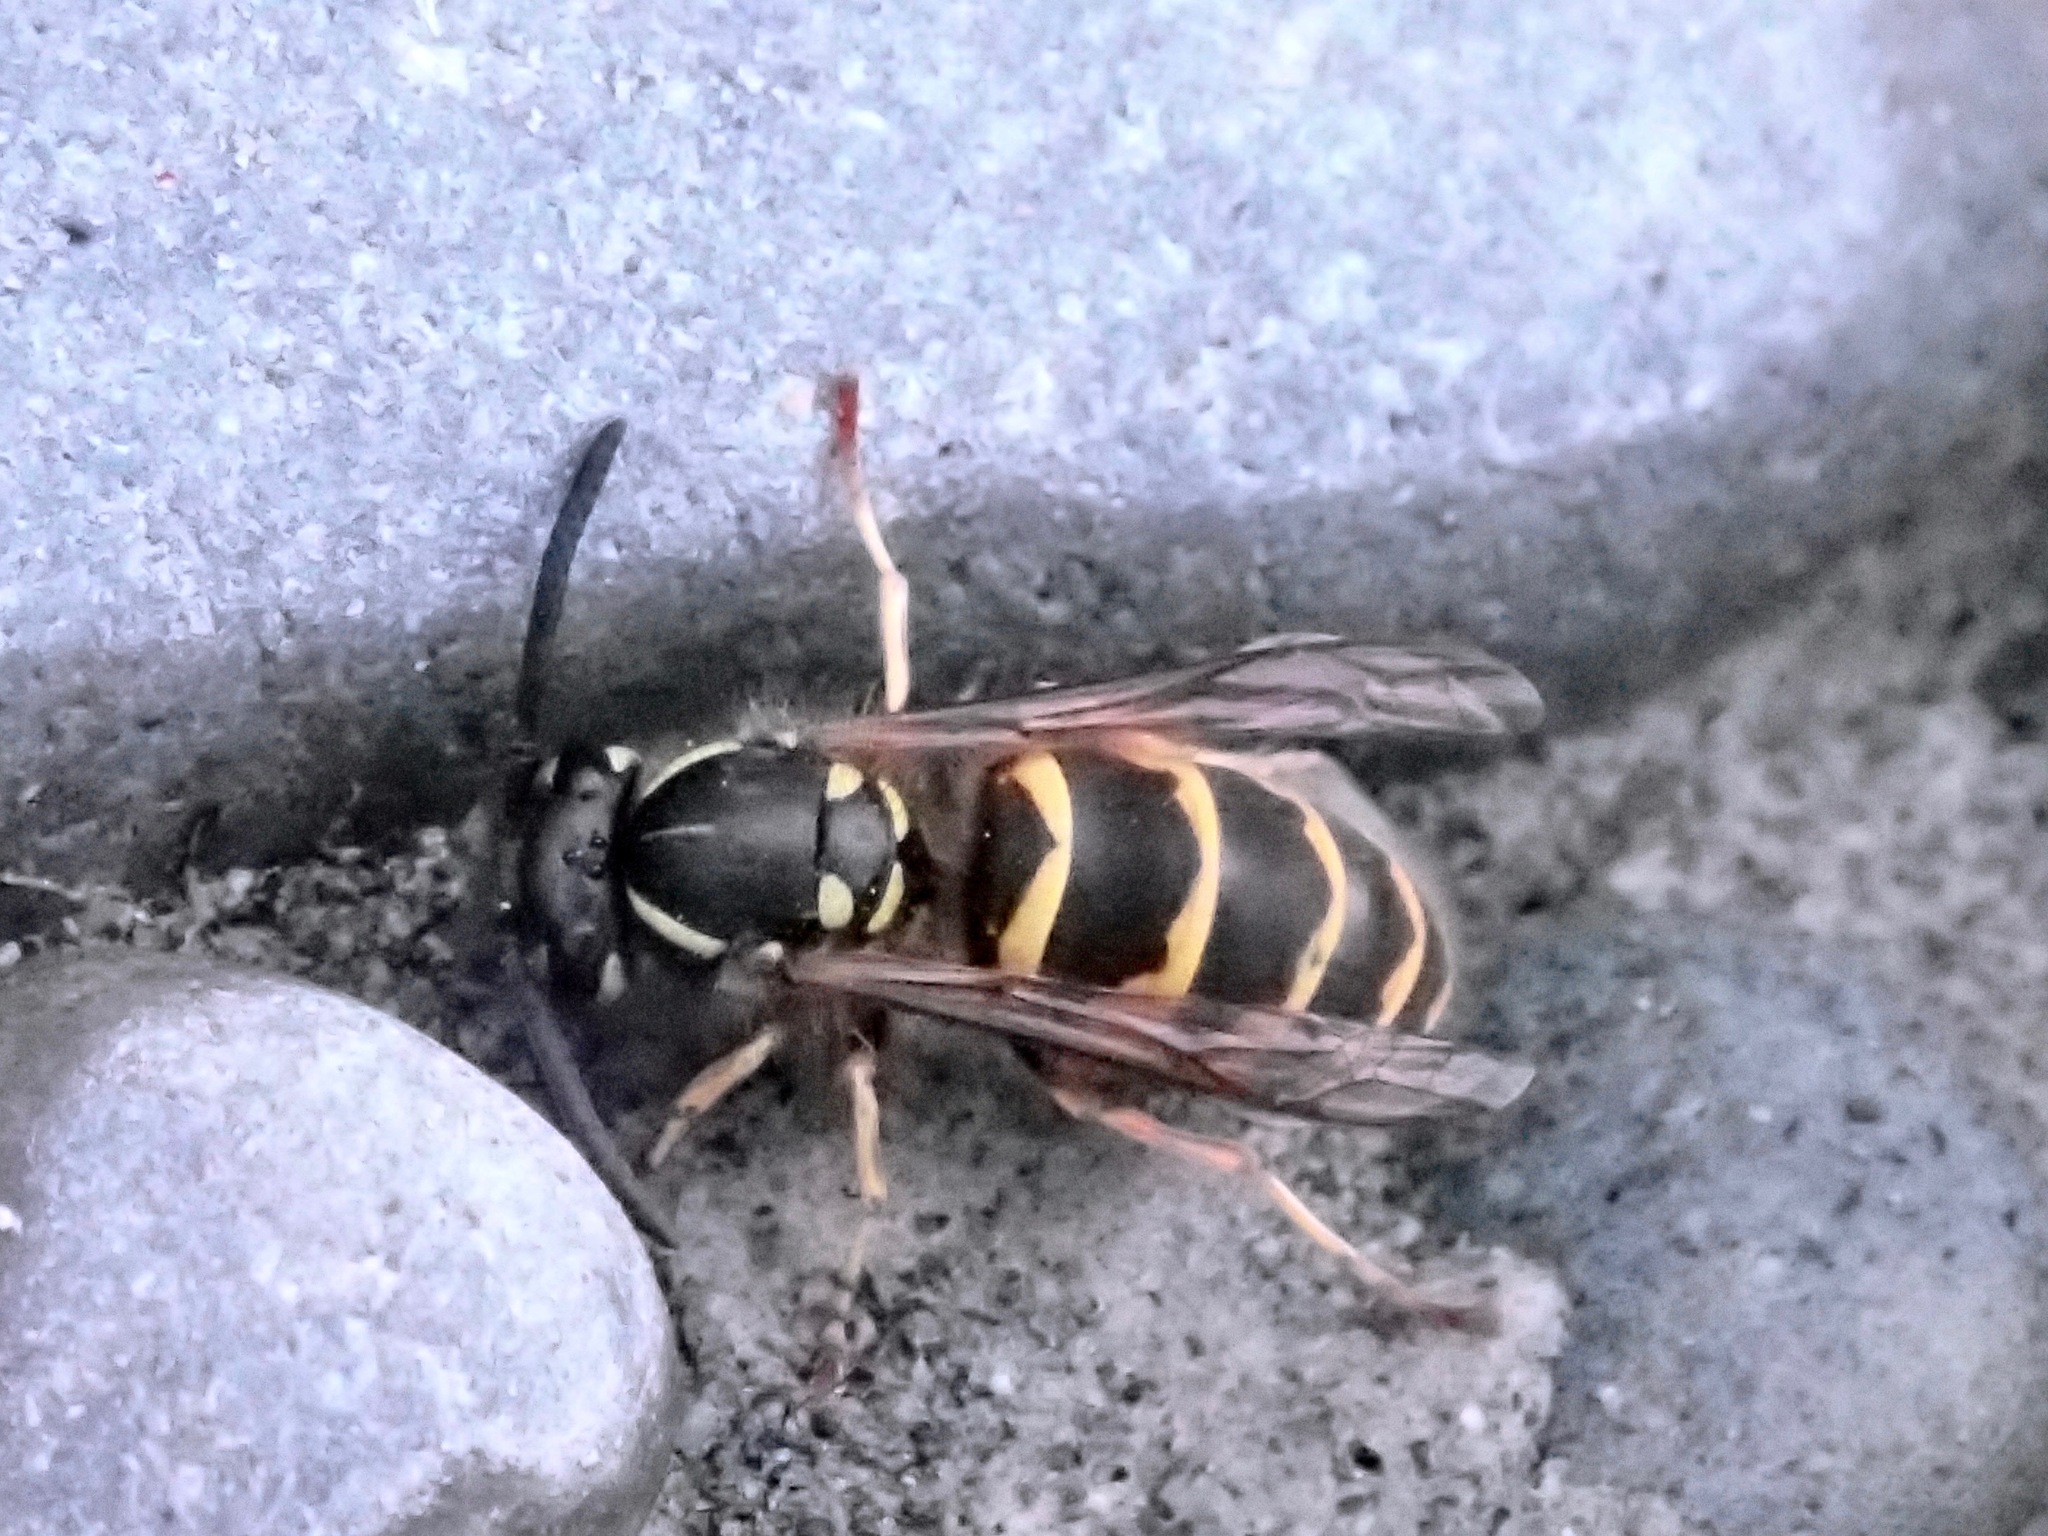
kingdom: Animalia
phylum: Arthropoda
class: Insecta
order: Hymenoptera
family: Vespidae
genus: Vespula
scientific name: Vespula vulgaris
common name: Common wasp
